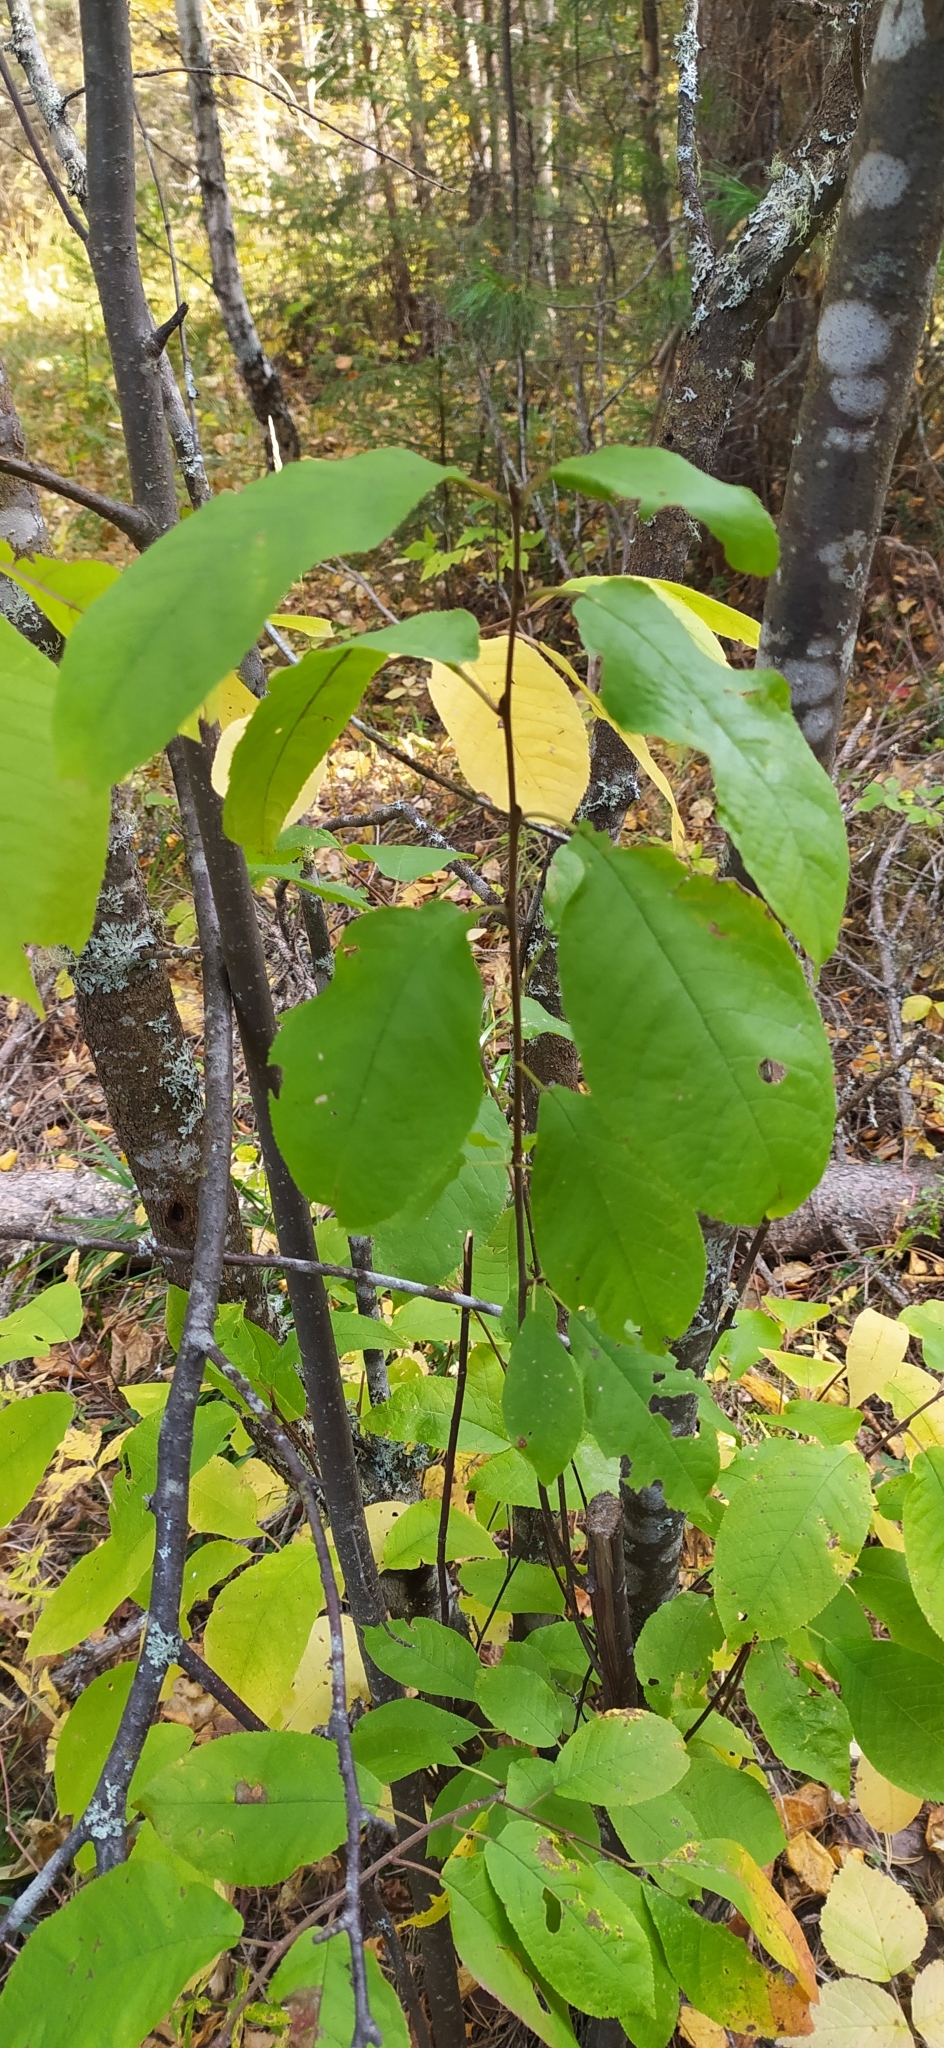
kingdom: Plantae
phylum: Tracheophyta
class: Magnoliopsida
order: Rosales
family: Rosaceae
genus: Prunus
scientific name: Prunus padus
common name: Bird cherry
